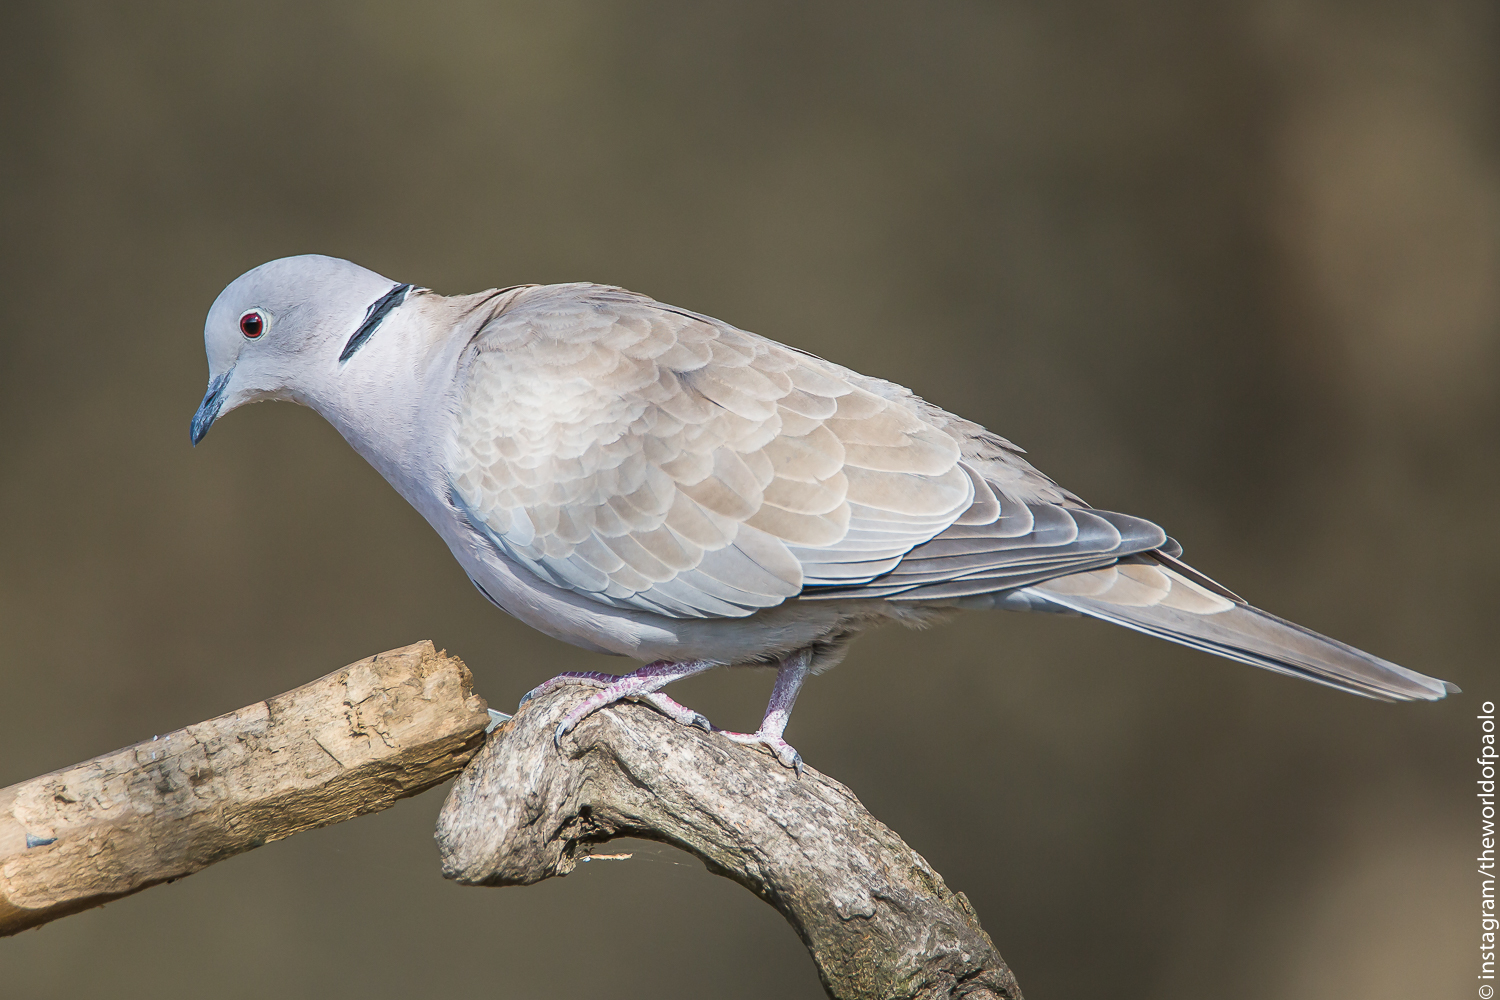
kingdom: Animalia
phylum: Chordata
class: Aves
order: Columbiformes
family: Columbidae
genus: Streptopelia
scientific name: Streptopelia decaocto
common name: Eurasian collared dove
